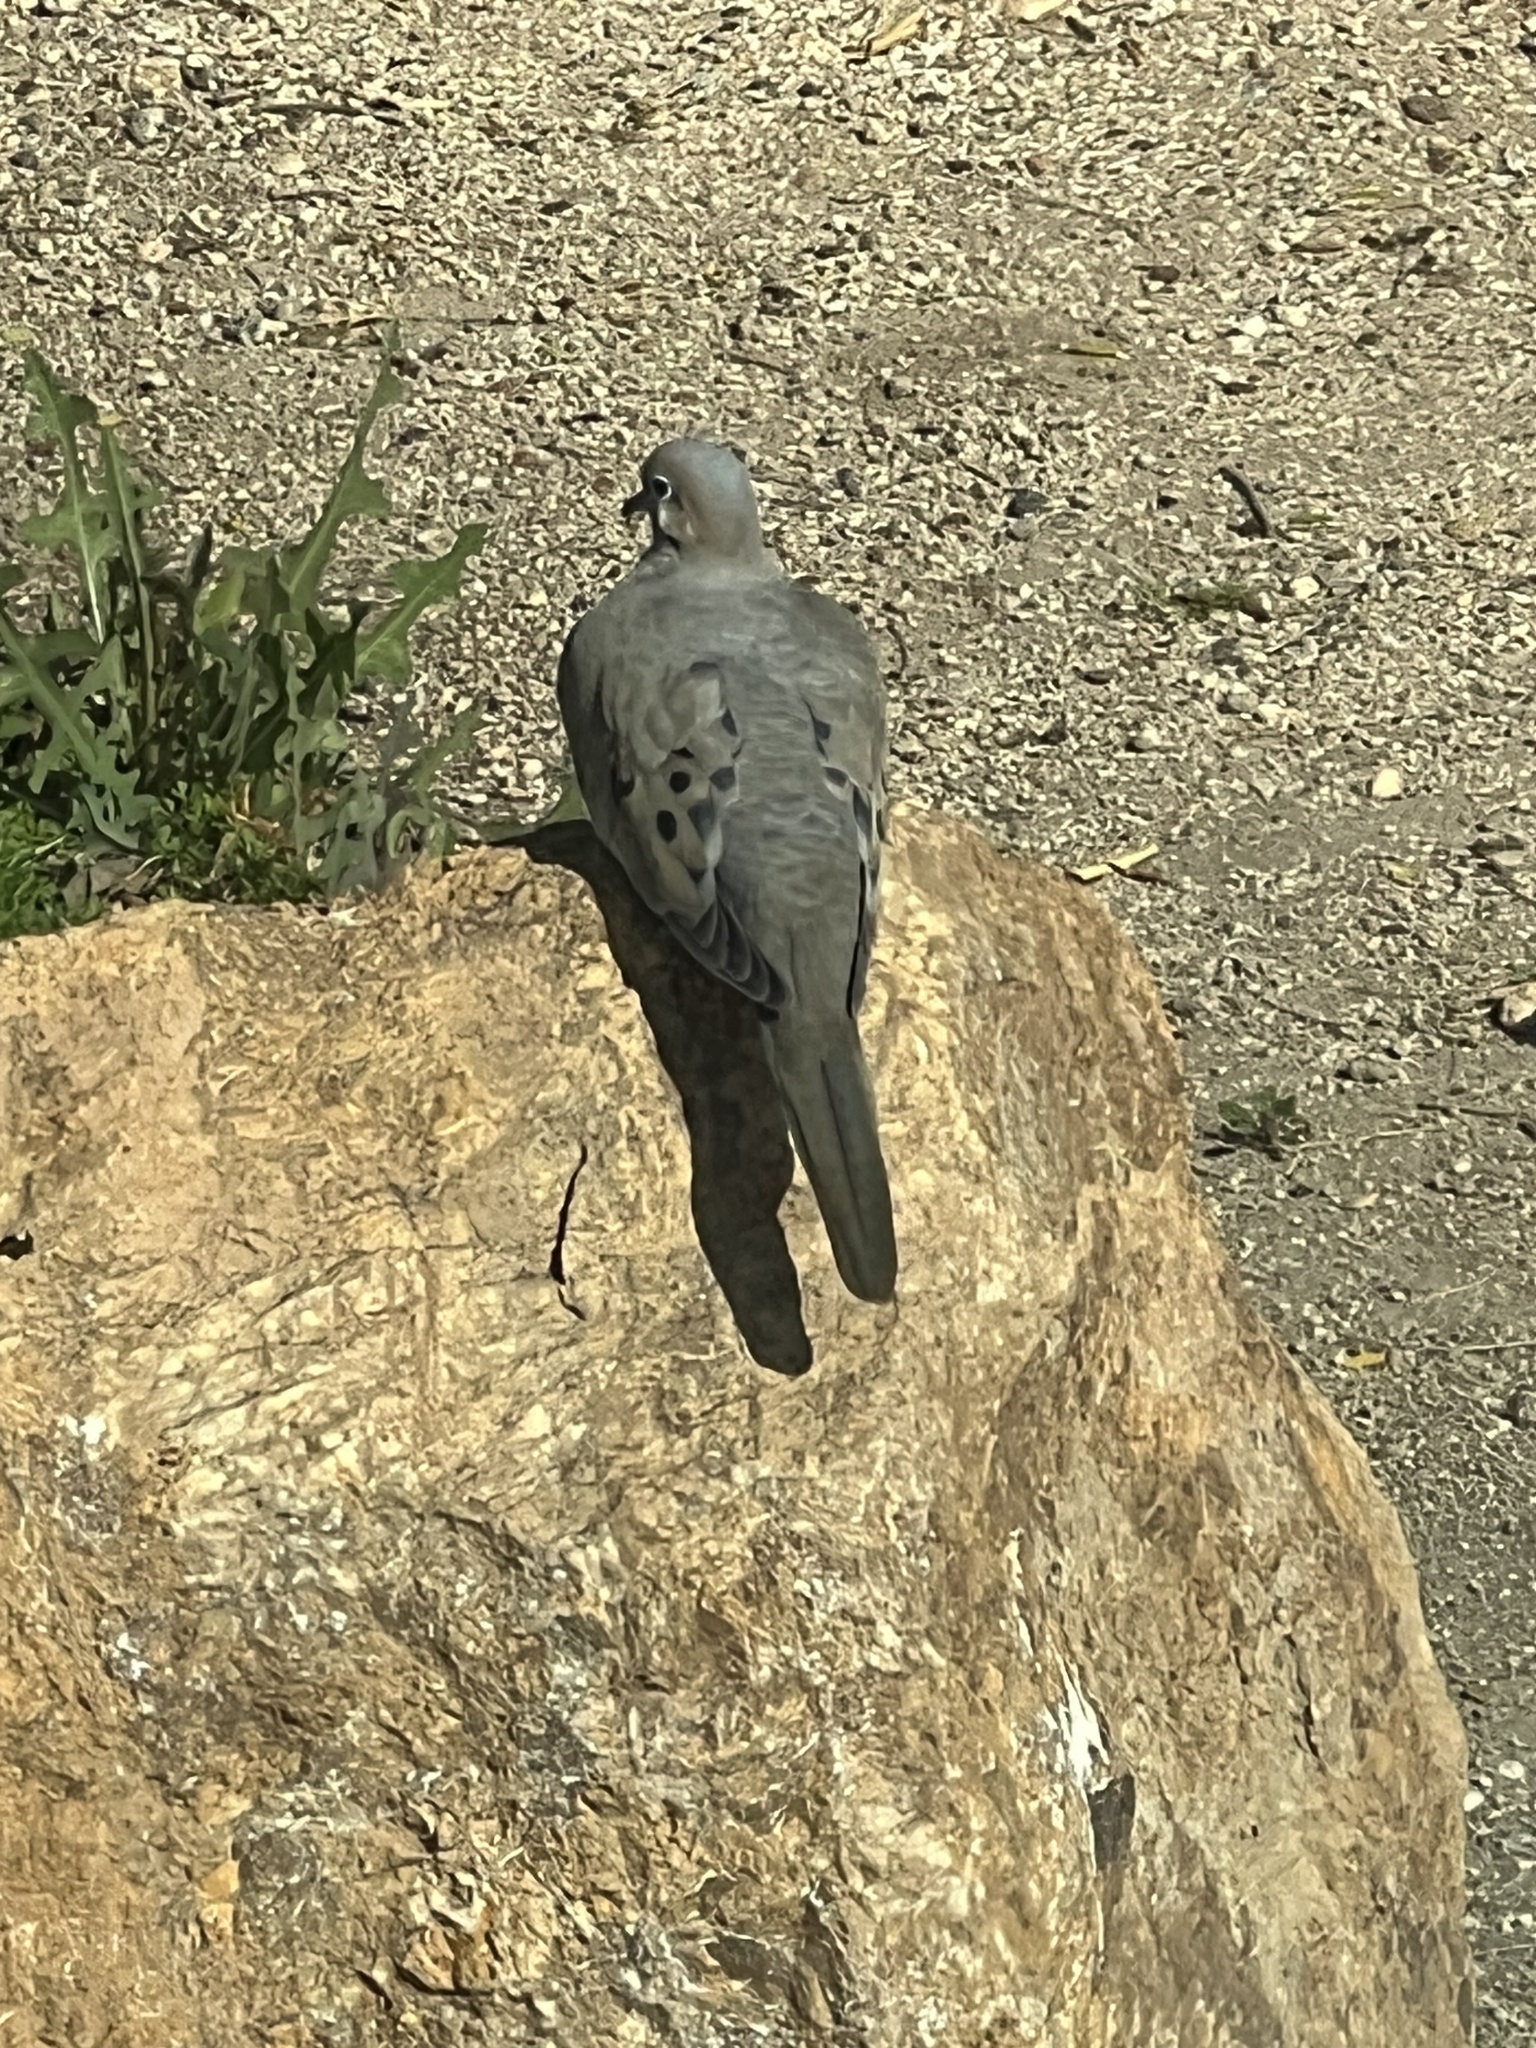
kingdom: Animalia
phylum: Chordata
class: Aves
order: Columbiformes
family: Columbidae
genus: Zenaida
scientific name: Zenaida macroura
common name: Mourning dove
